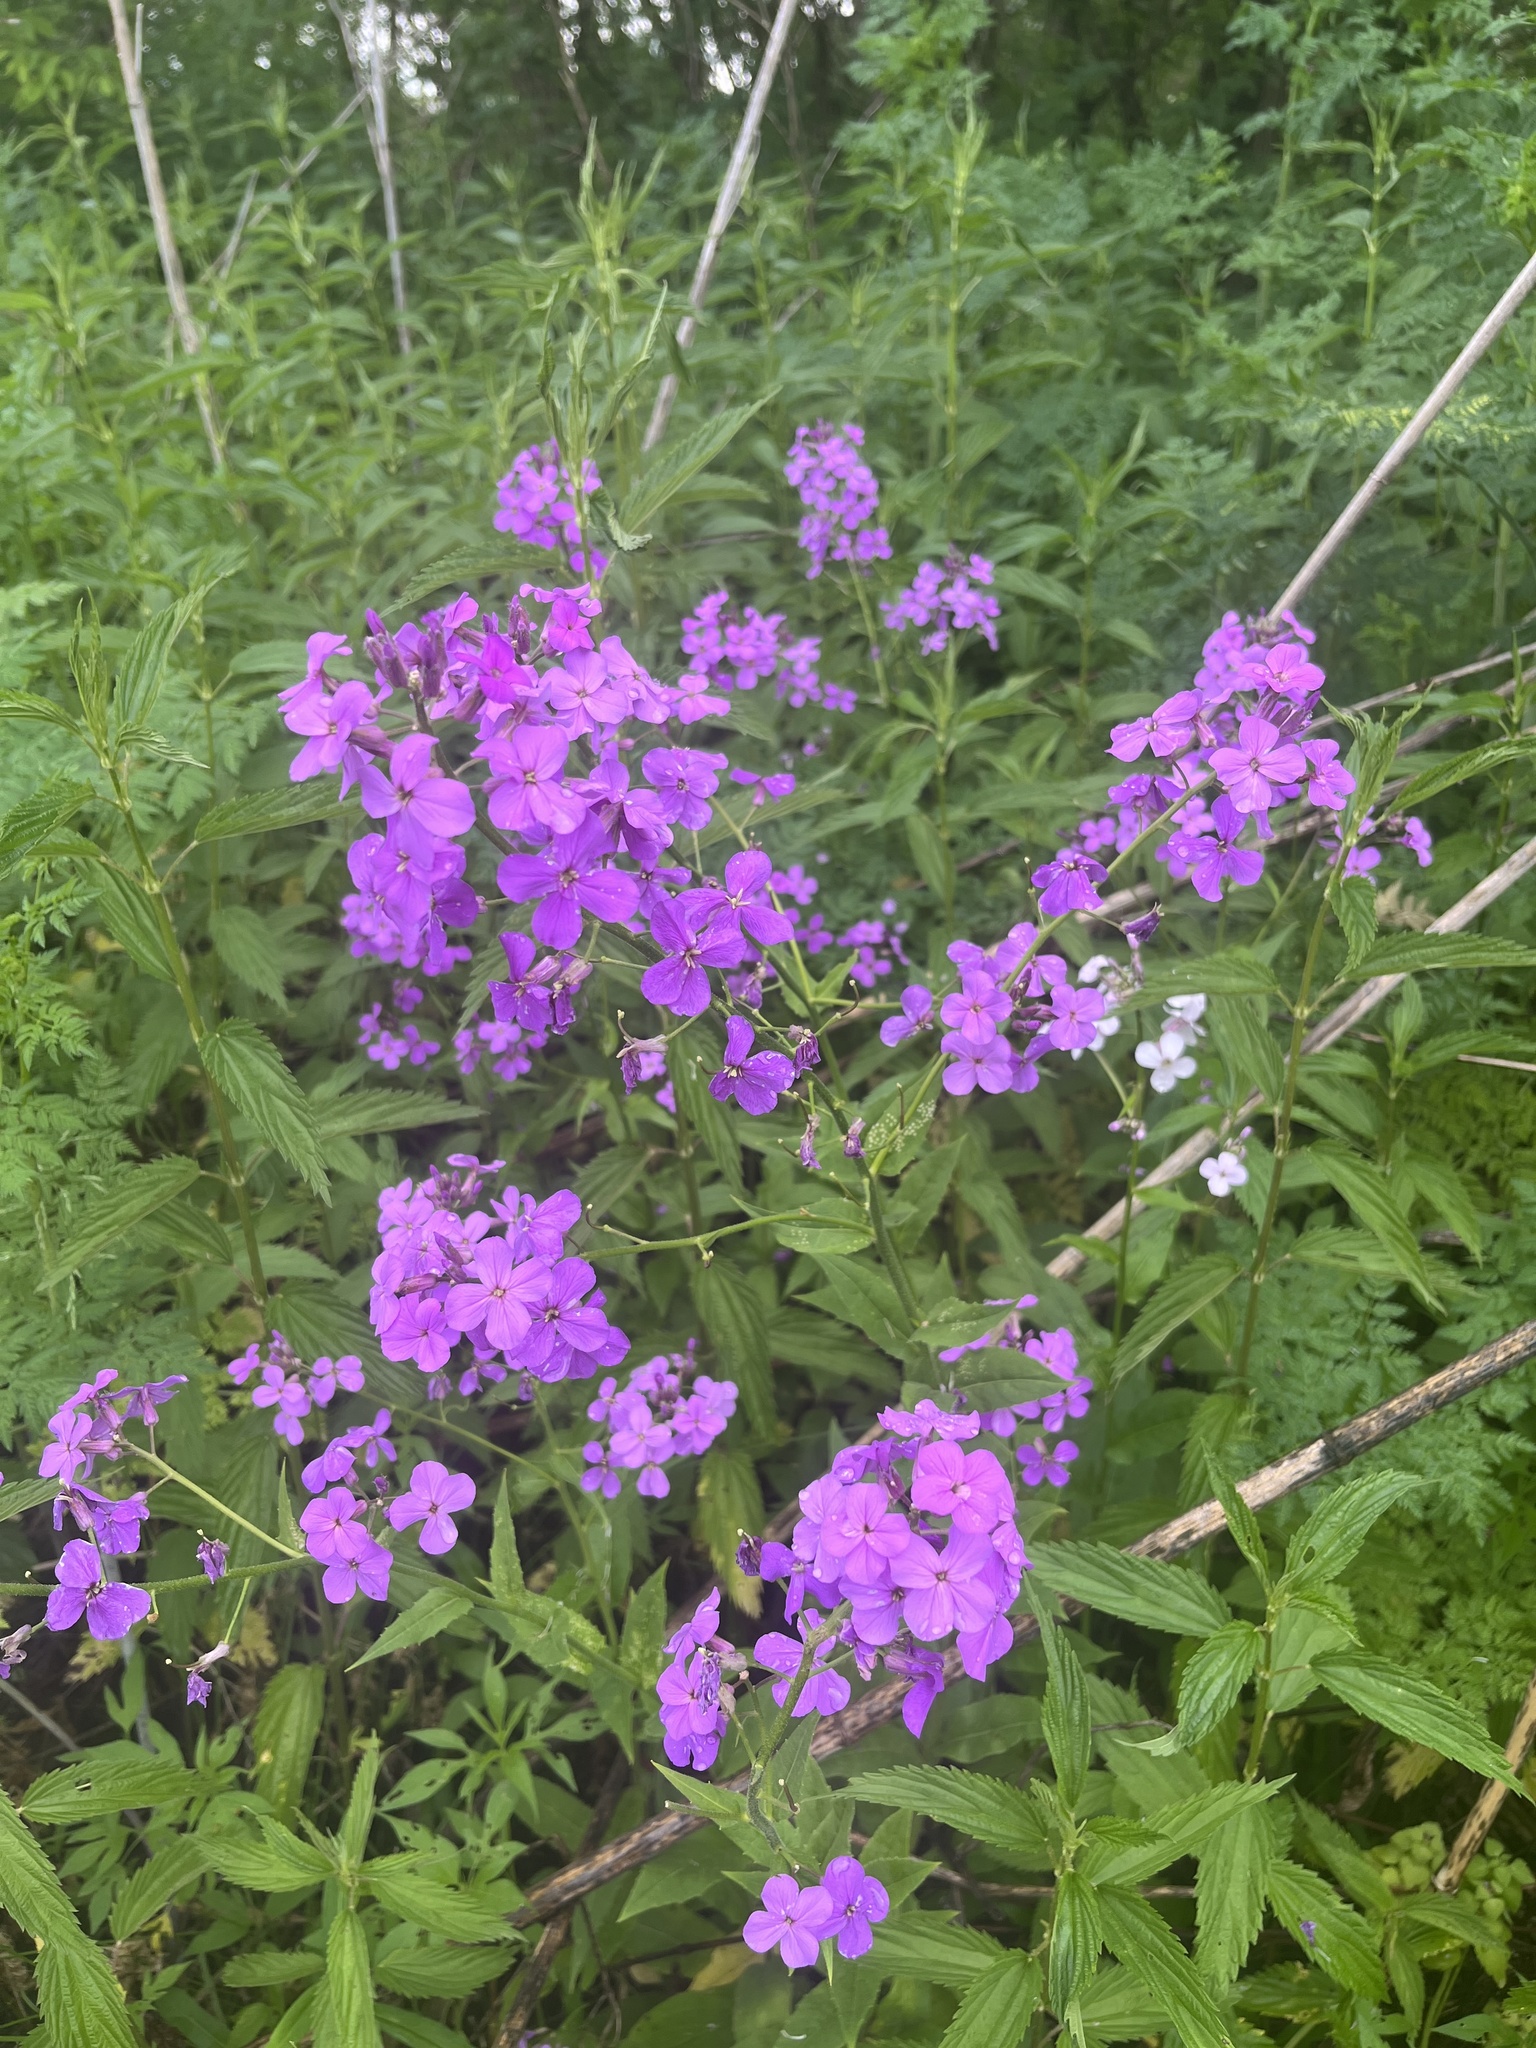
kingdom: Plantae
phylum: Tracheophyta
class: Magnoliopsida
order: Brassicales
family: Brassicaceae
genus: Hesperis
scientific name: Hesperis matronalis
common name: Dame's-violet
